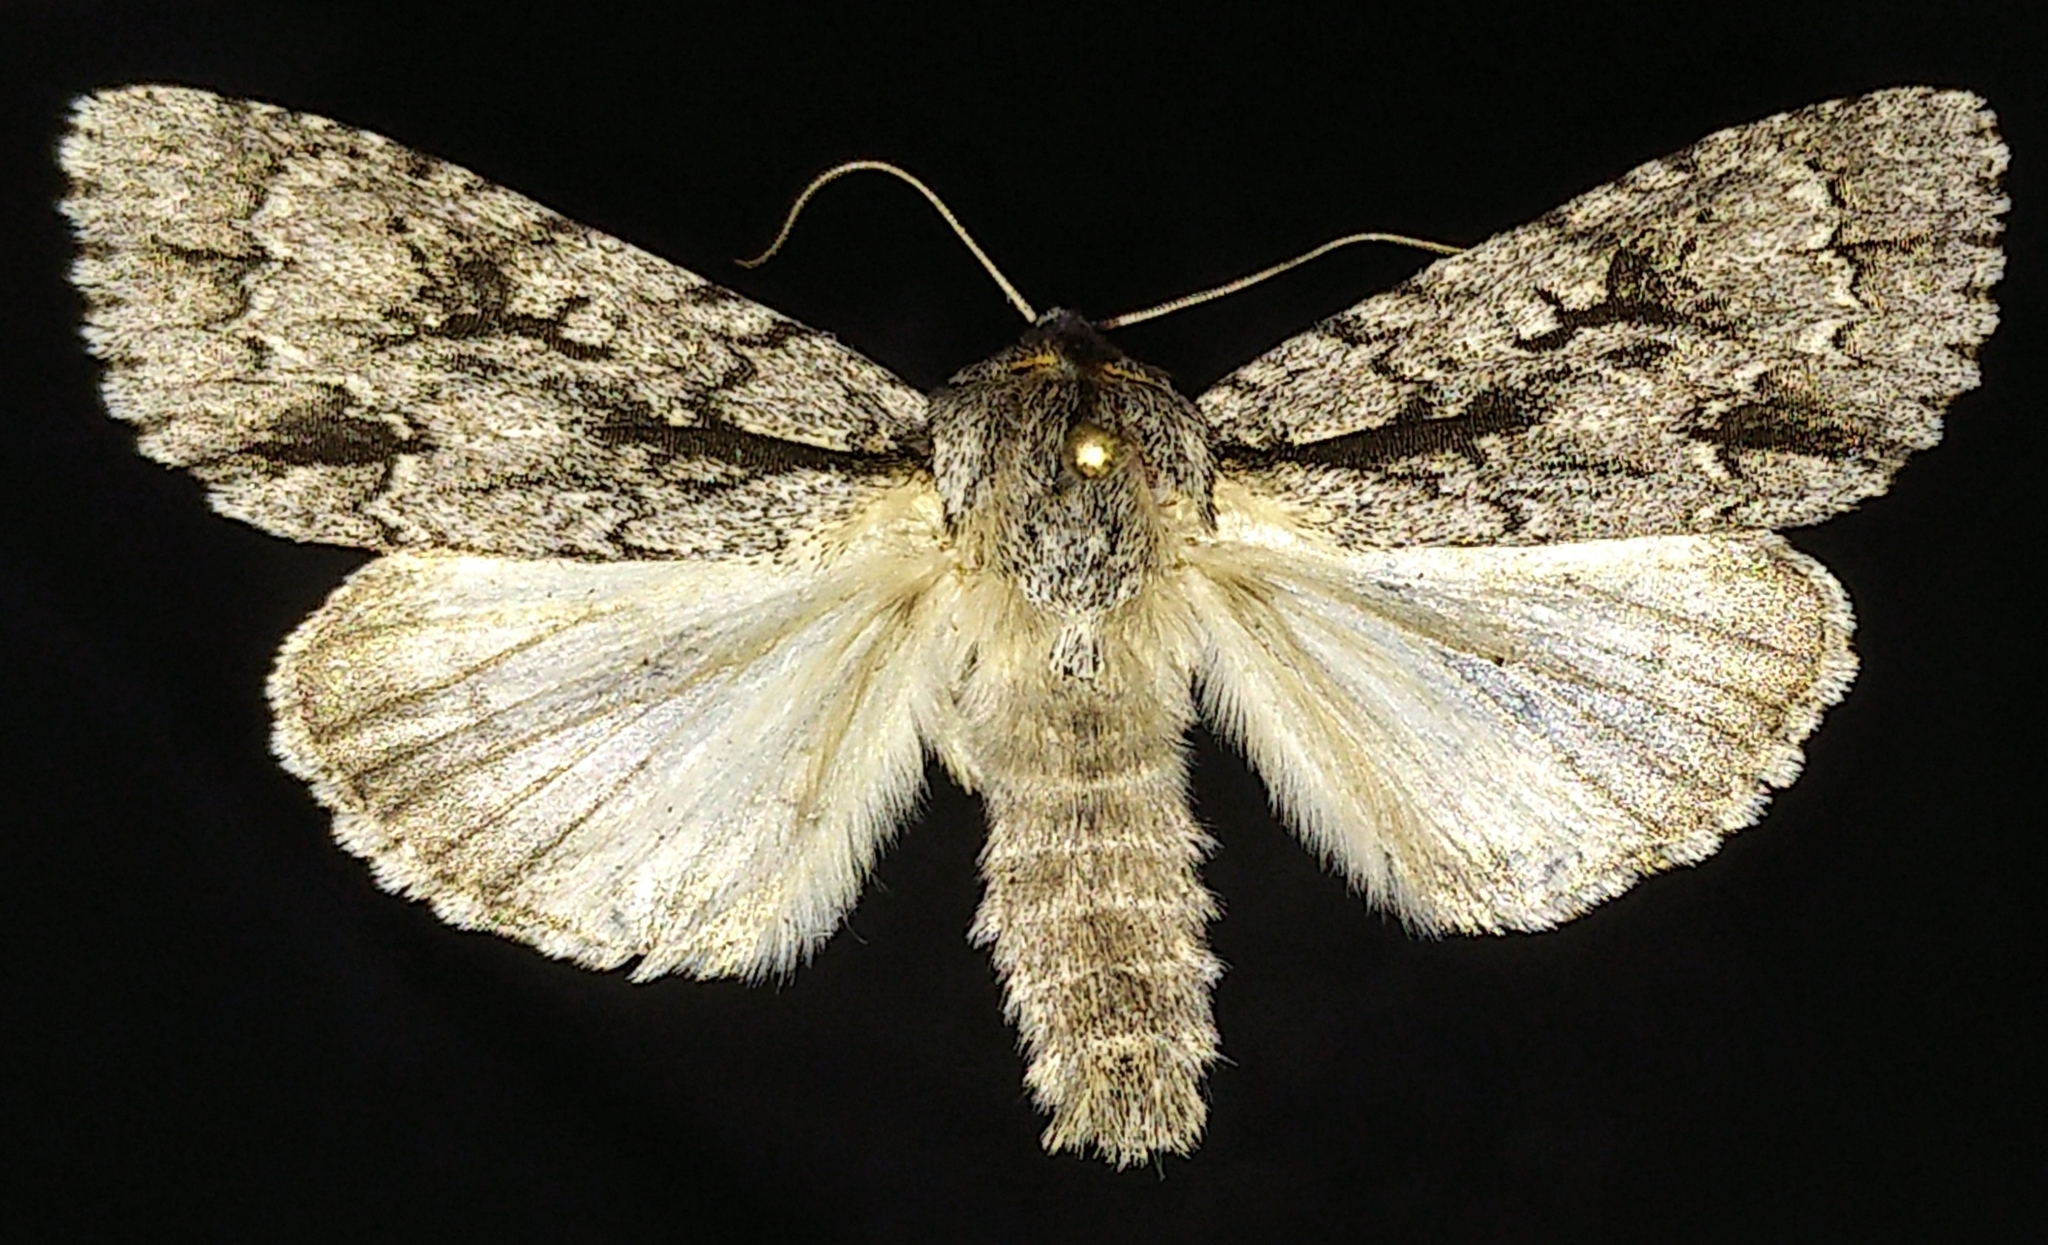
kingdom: Animalia
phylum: Arthropoda
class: Insecta
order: Lepidoptera
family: Noctuidae
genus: Acronicta
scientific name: Acronicta hasta
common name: Cherry dagger
